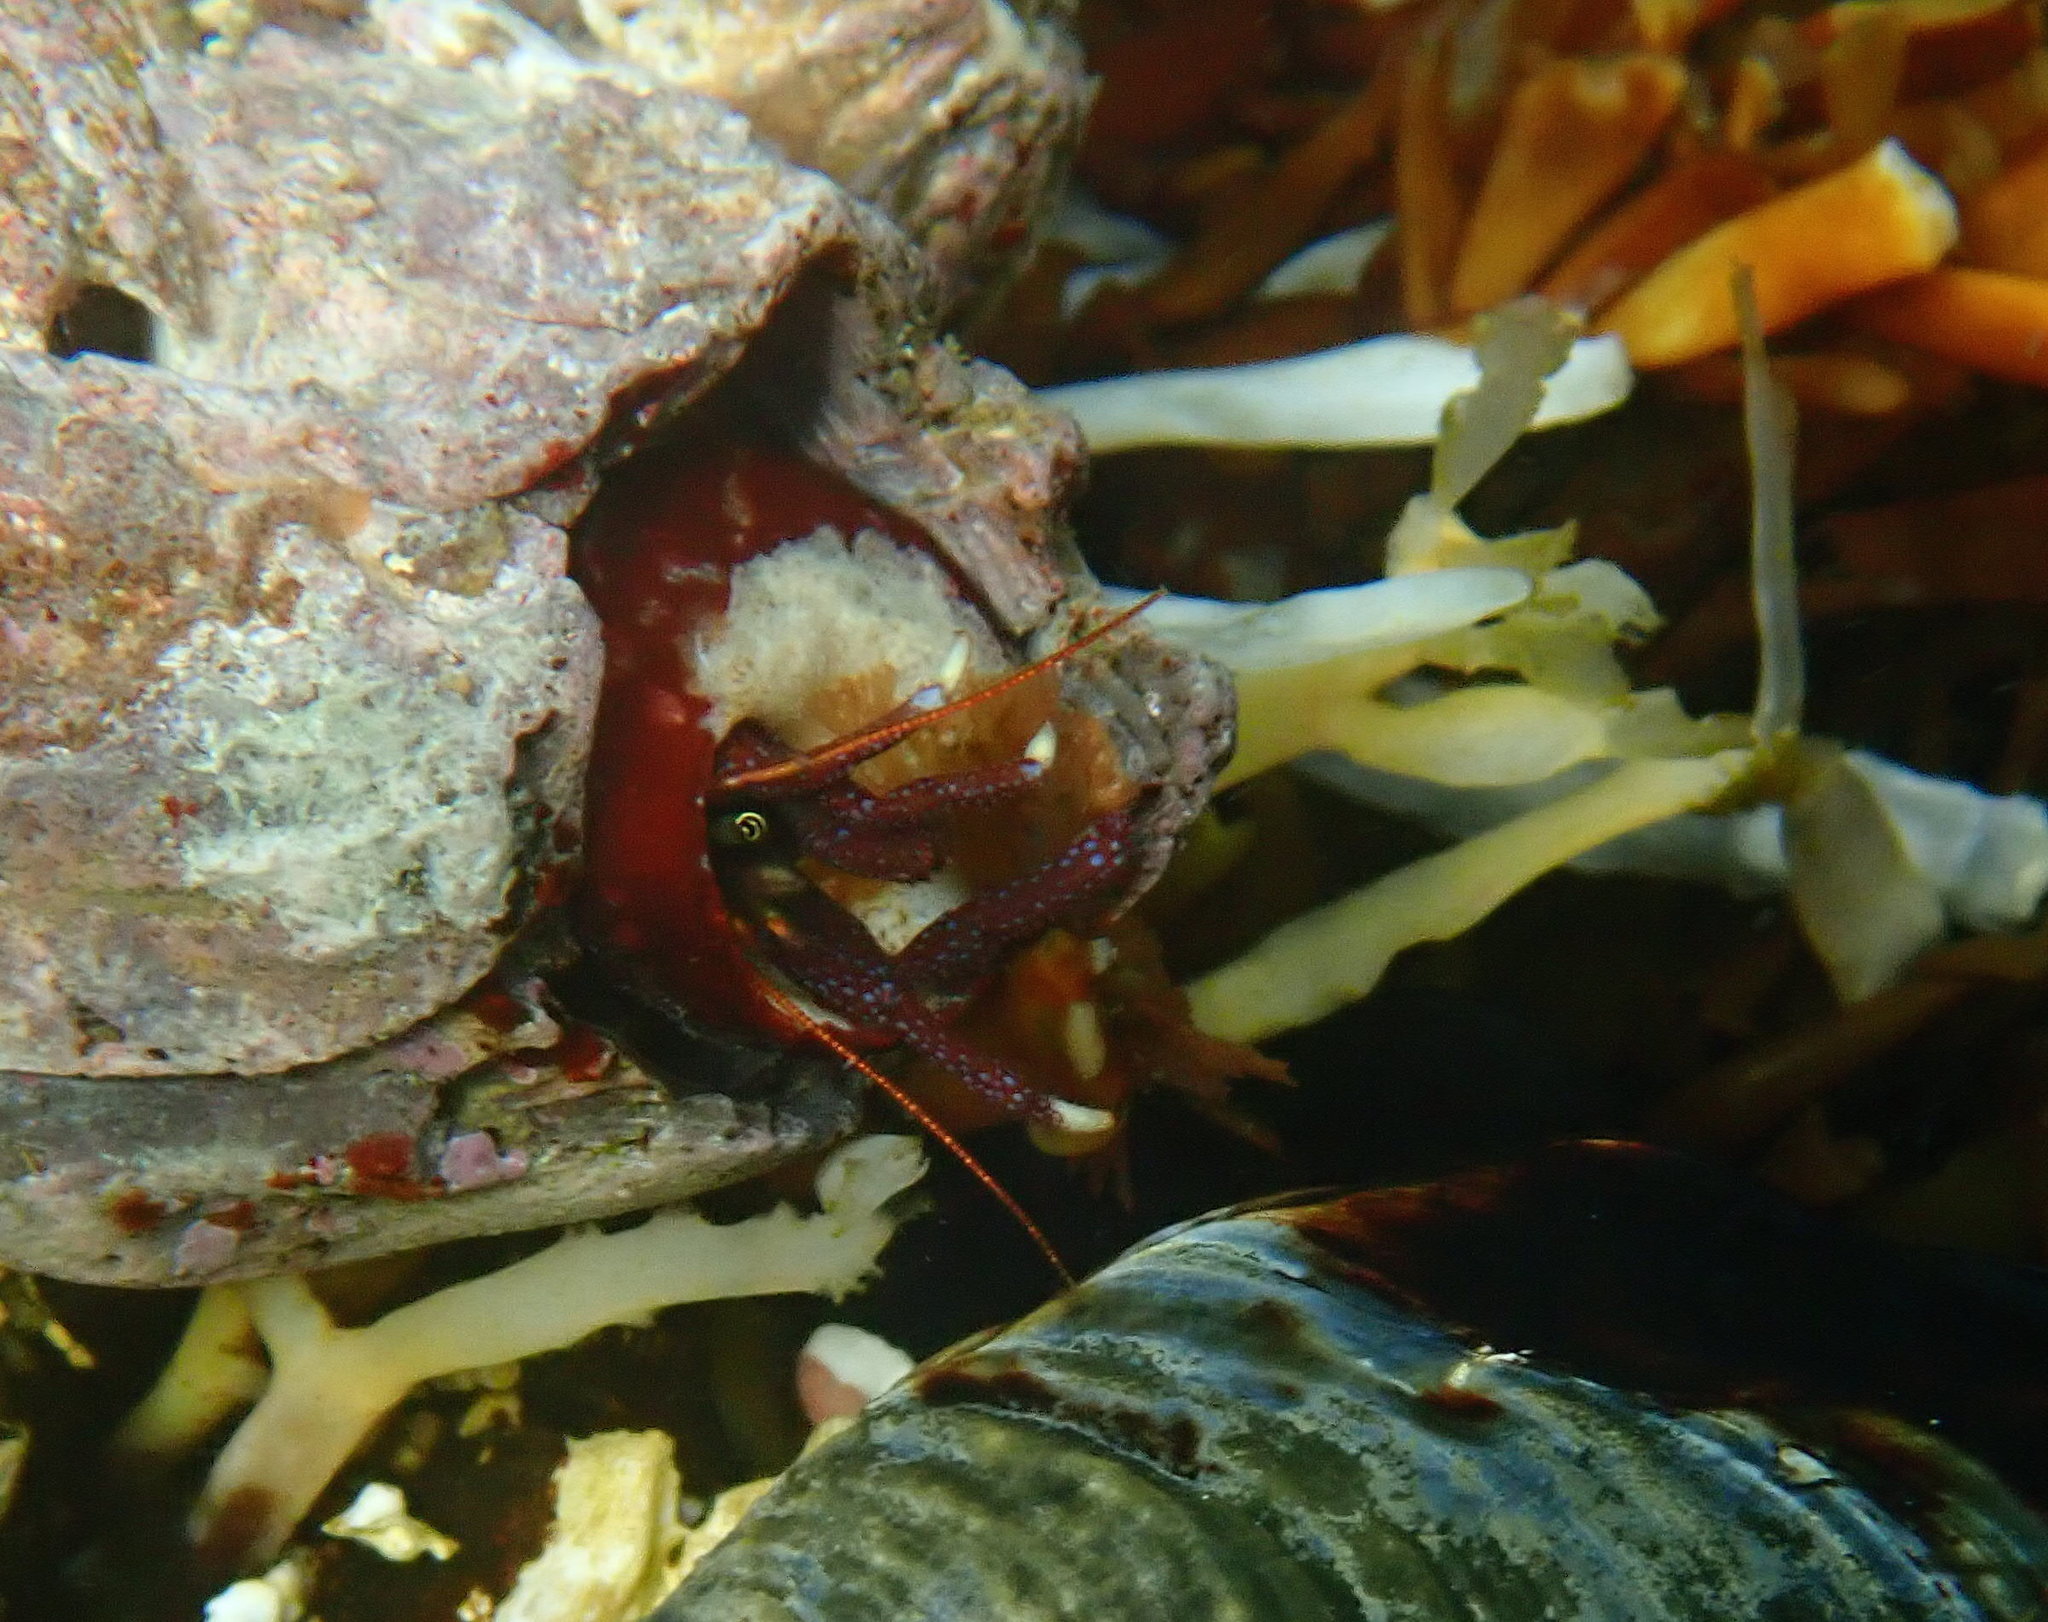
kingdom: Animalia
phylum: Arthropoda
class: Malacostraca
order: Decapoda
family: Paguridae
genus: Pagurus
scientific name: Pagurus hemphilli
